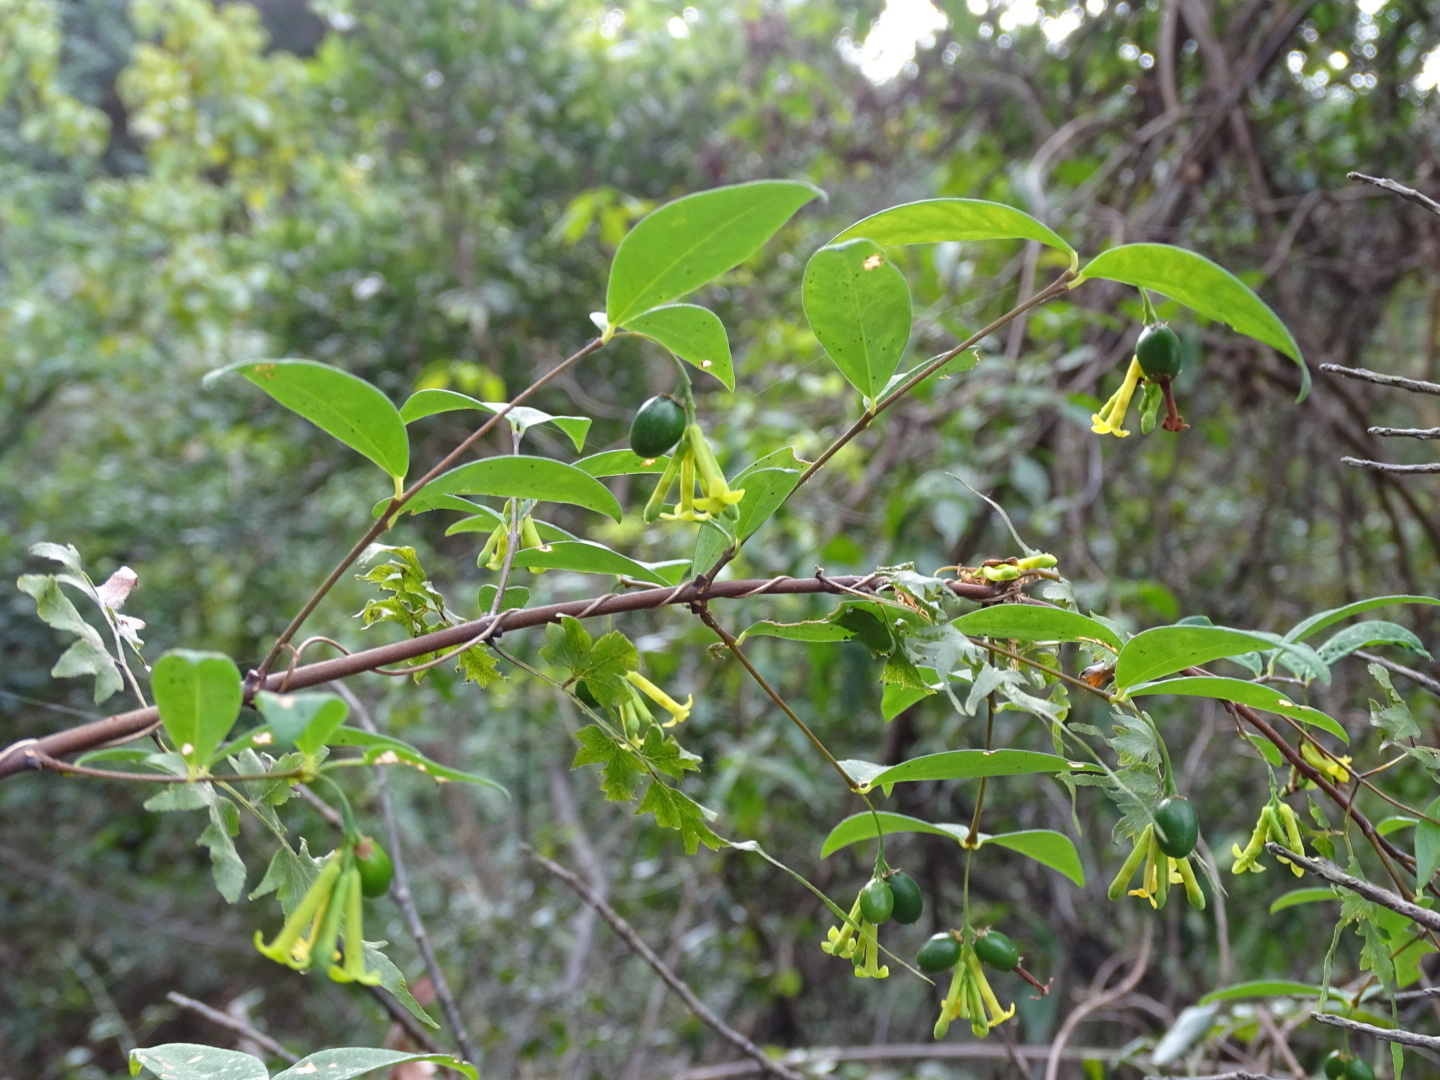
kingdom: Plantae
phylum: Tracheophyta
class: Magnoliopsida
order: Malvales
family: Thymelaeaceae
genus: Wikstroemia
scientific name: Wikstroemia nutans
